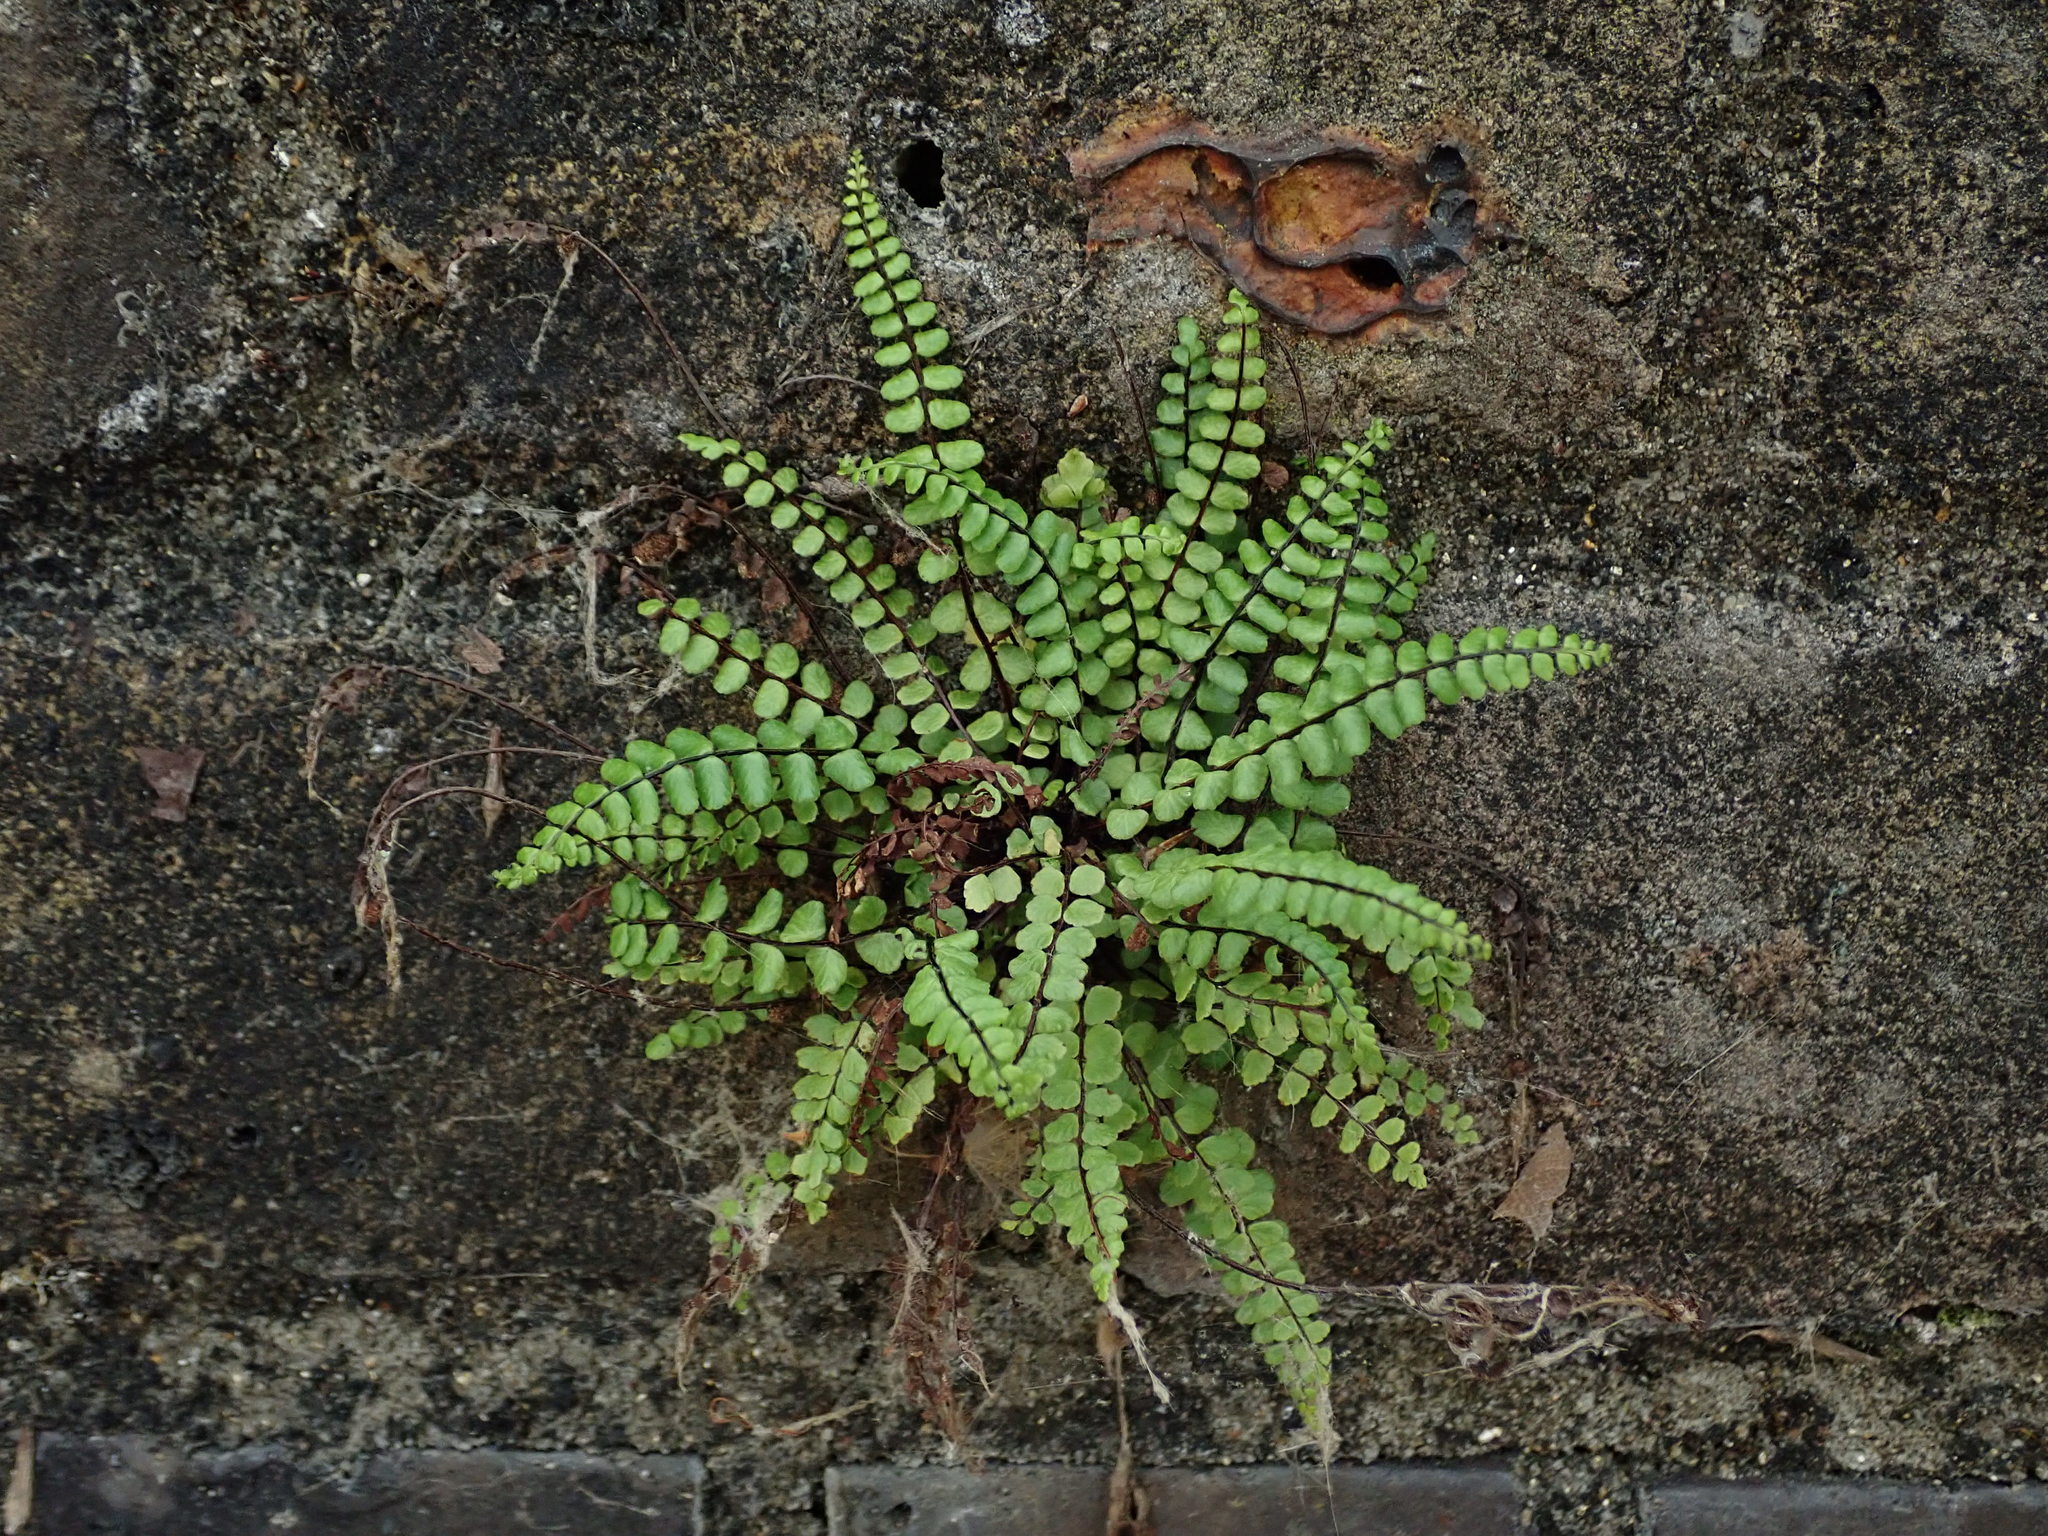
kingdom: Plantae
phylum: Tracheophyta
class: Polypodiopsida
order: Polypodiales
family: Aspleniaceae
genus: Asplenium
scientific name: Asplenium trichomanes
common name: Maidenhair spleenwort
